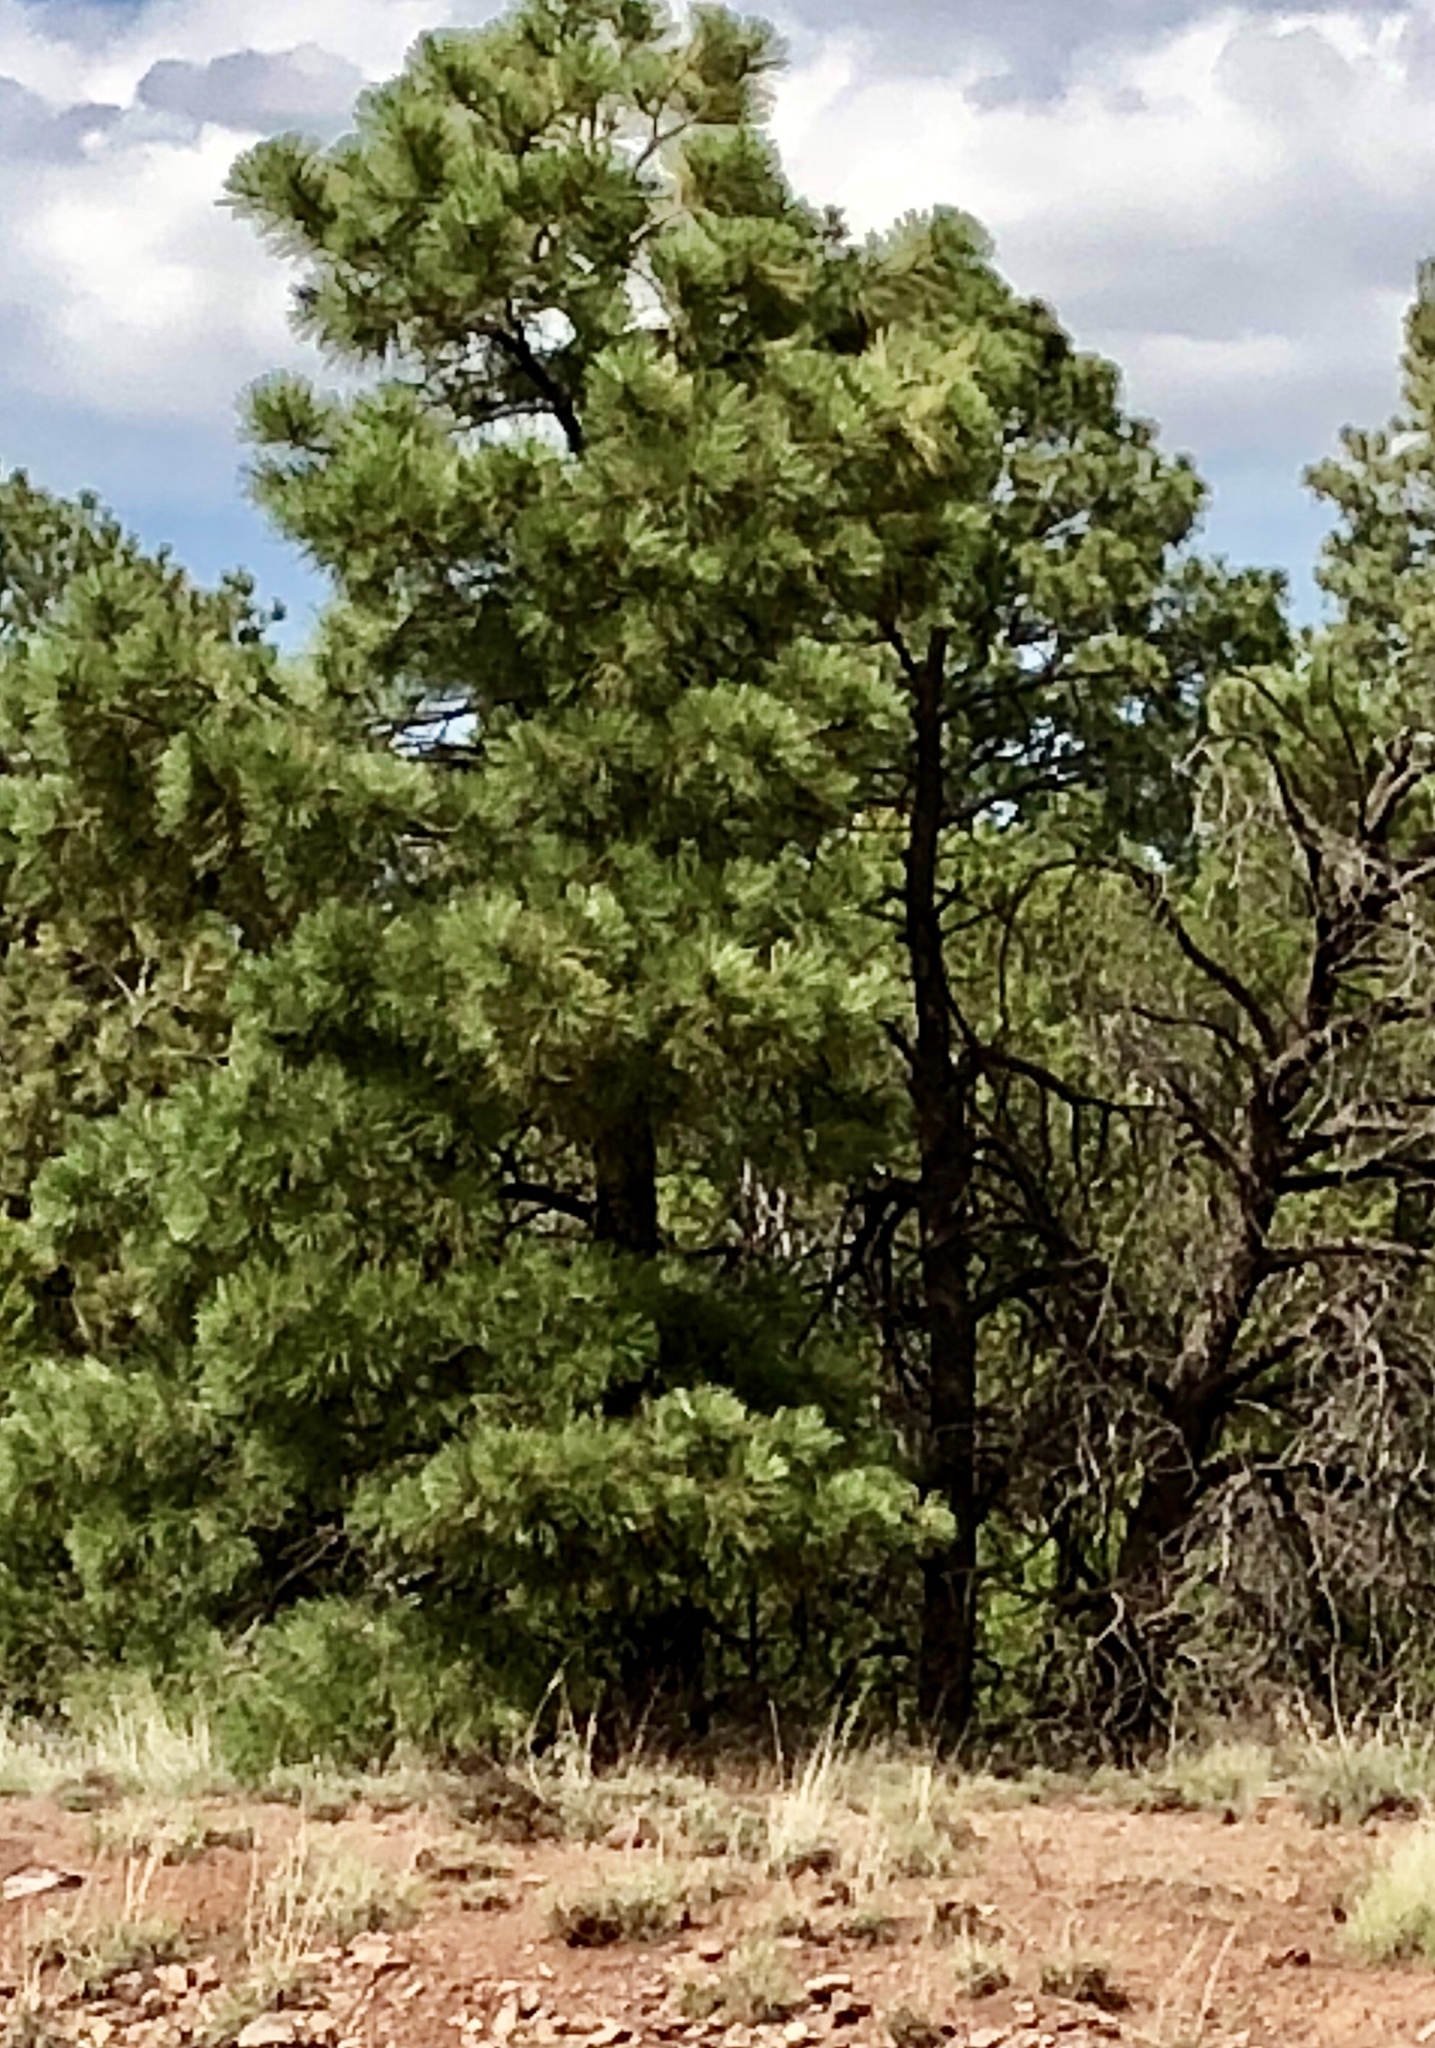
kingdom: Plantae
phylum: Tracheophyta
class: Pinopsida
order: Pinales
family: Pinaceae
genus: Pinus
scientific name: Pinus ponderosa
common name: Western yellow-pine
